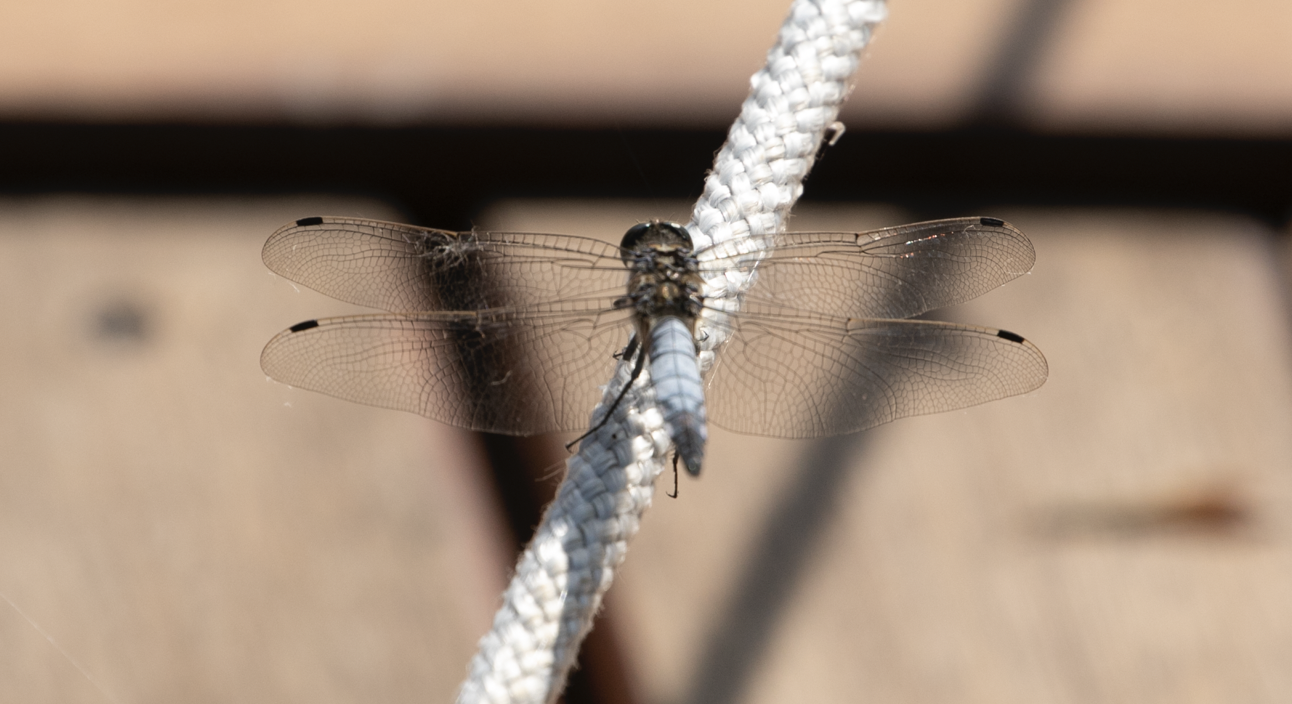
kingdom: Animalia
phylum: Arthropoda
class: Insecta
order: Odonata
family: Libellulidae
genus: Orthetrum
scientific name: Orthetrum cancellatum
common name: Black-tailed skimmer
